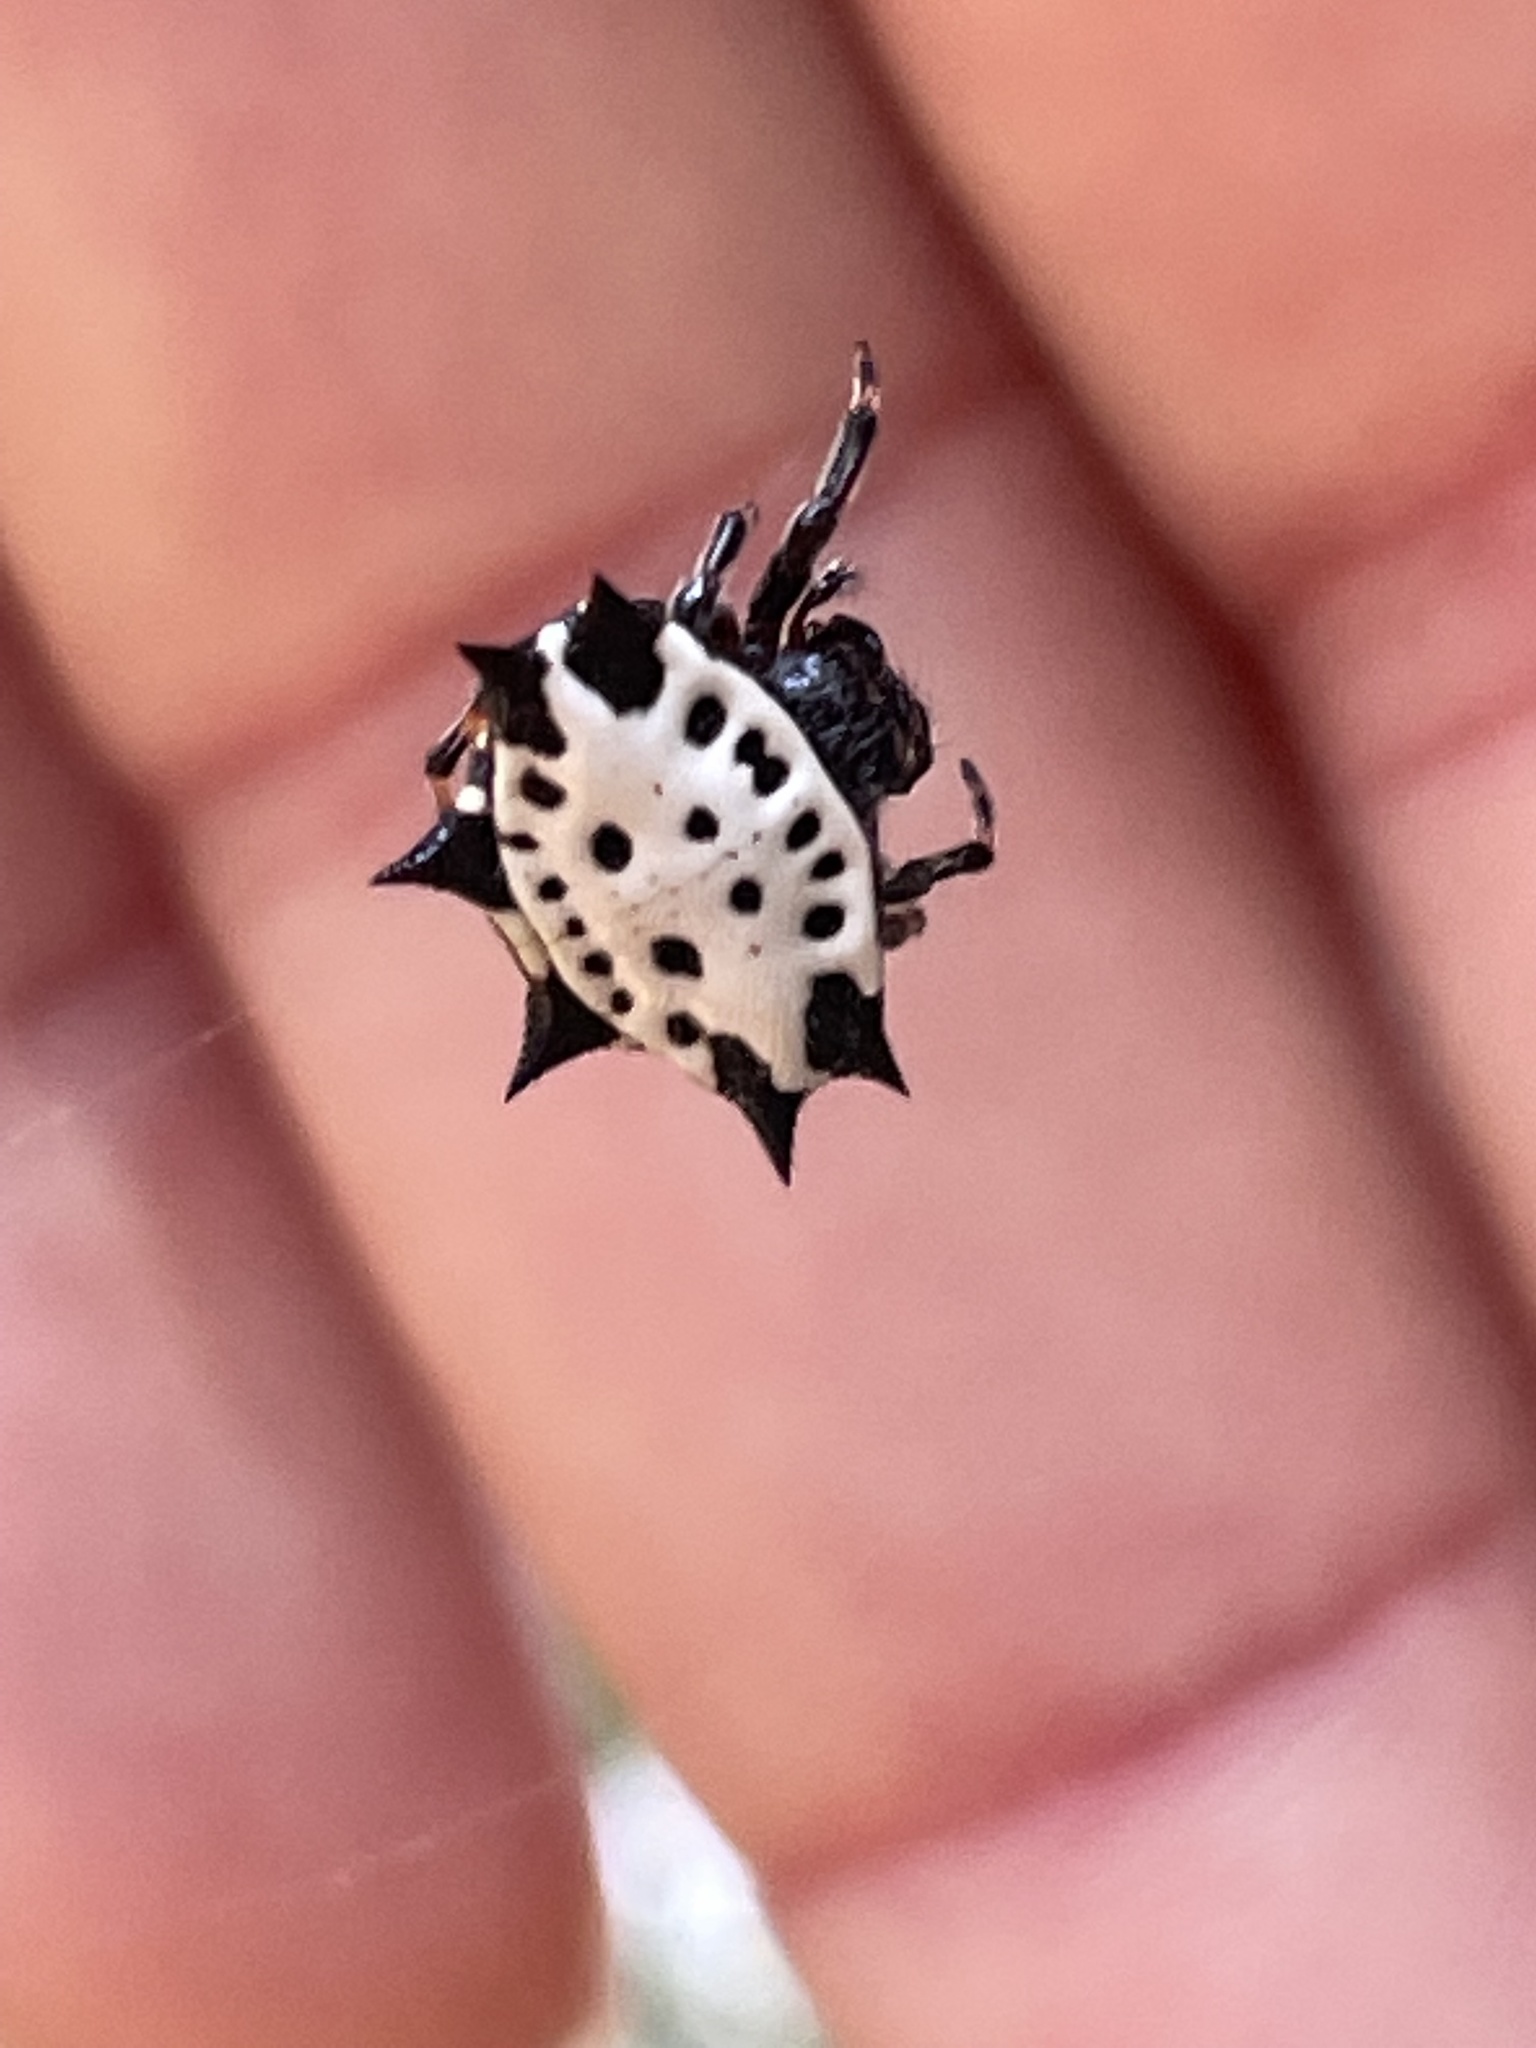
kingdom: Animalia
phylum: Arthropoda
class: Arachnida
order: Araneae
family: Araneidae
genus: Gasteracantha
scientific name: Gasteracantha cancriformis
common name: Orb weavers
